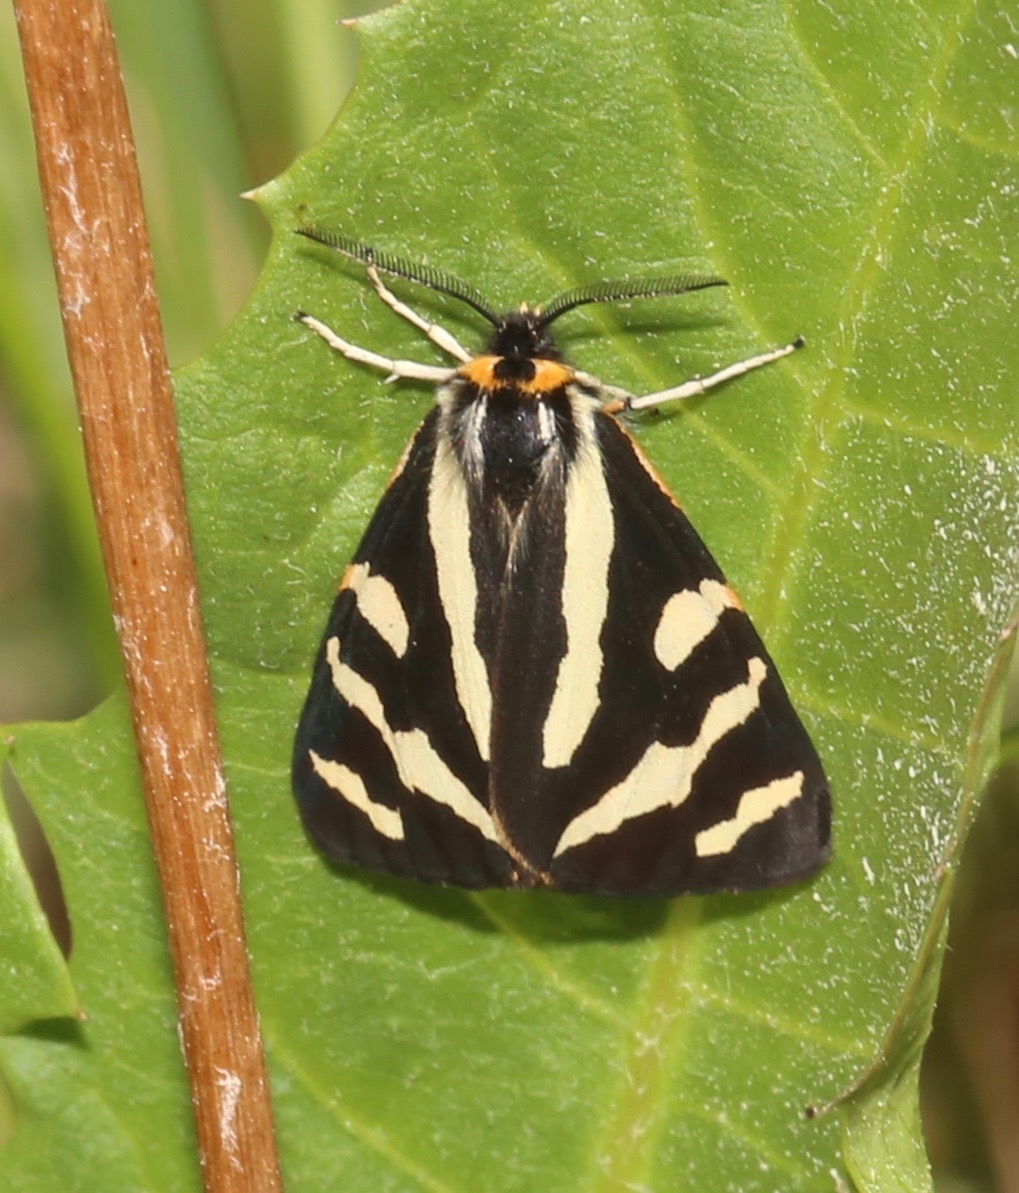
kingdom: Animalia
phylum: Arthropoda
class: Insecta
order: Lepidoptera
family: Erebidae
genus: Parasemia
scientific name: Parasemia plantaginis
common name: Wood tiger
